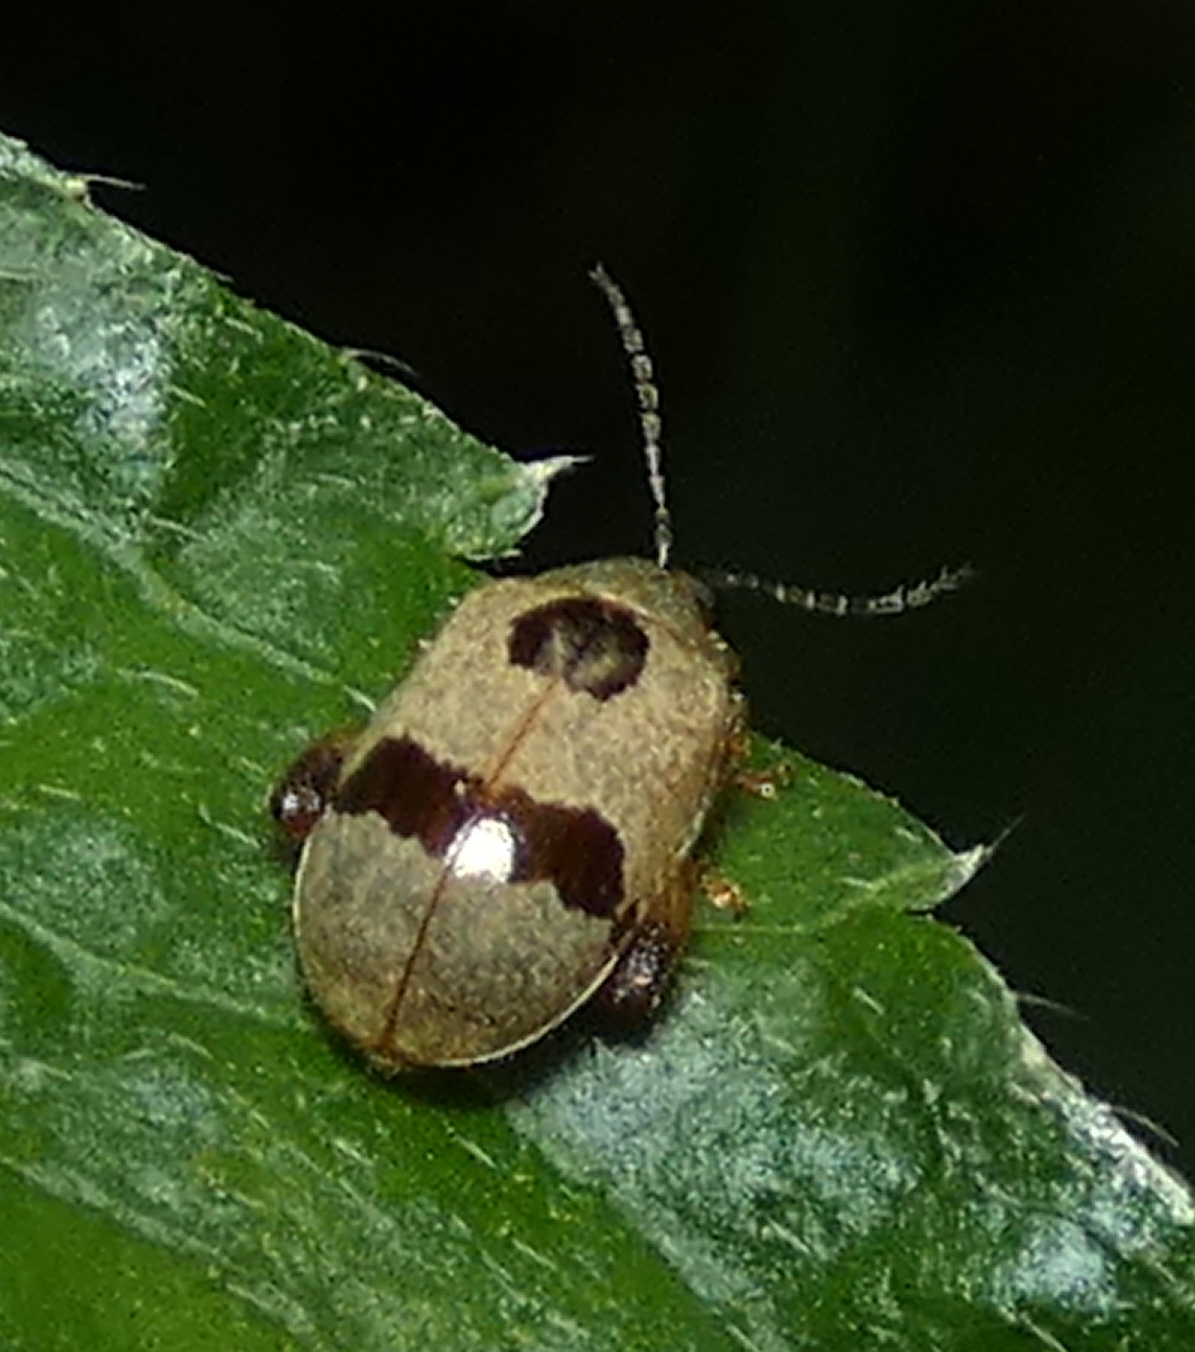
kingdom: Animalia
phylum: Arthropoda
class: Insecta
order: Coleoptera
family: Chrysomelidae
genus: Alagoasa
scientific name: Alagoasa
